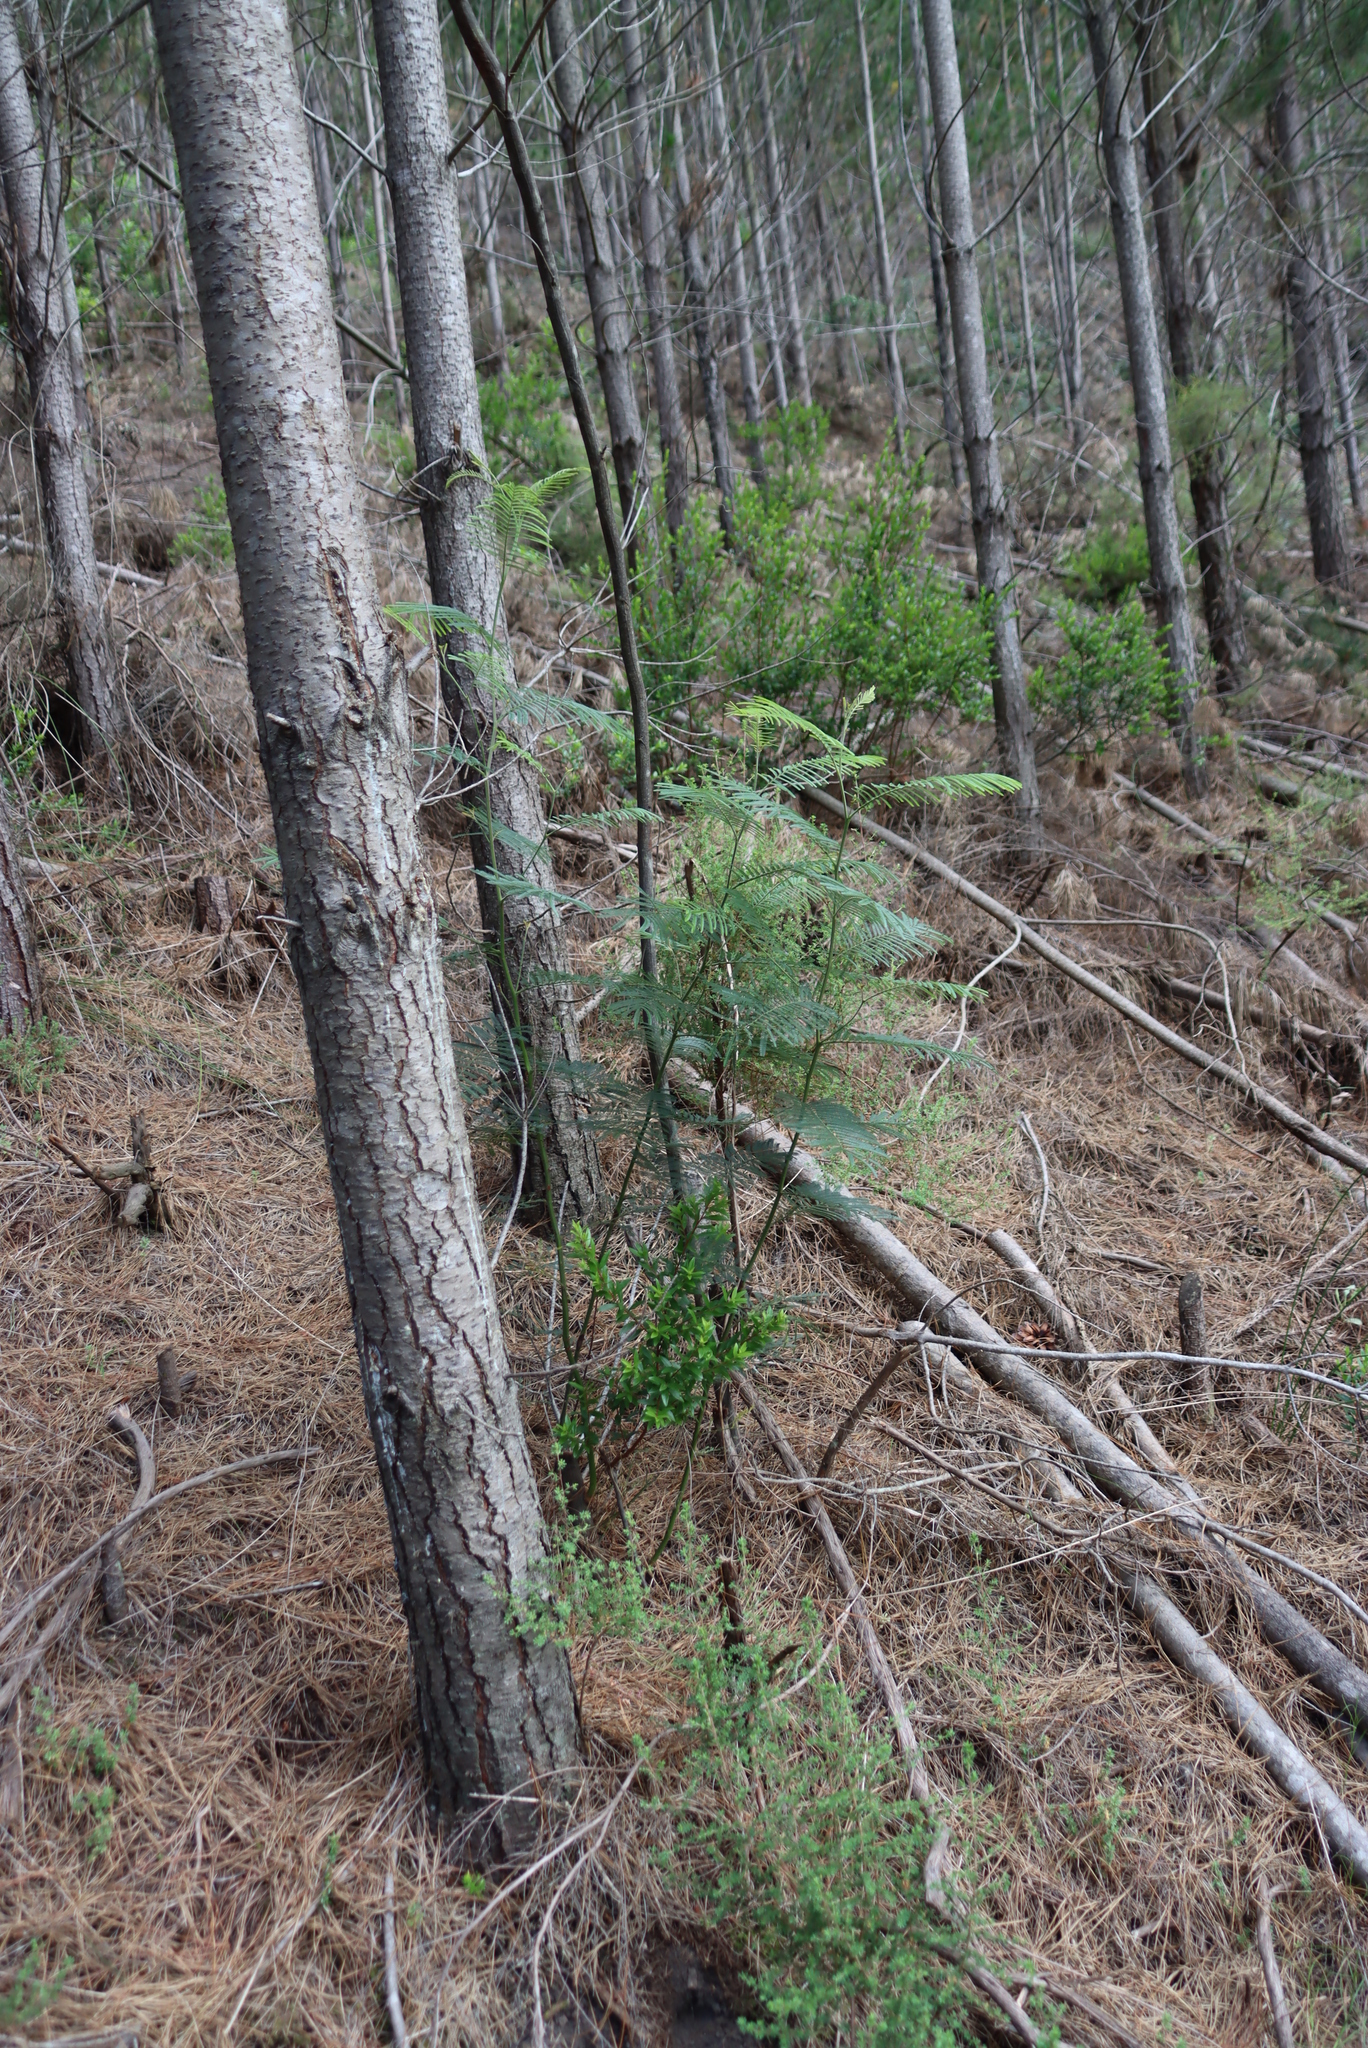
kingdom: Plantae
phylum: Tracheophyta
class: Magnoliopsida
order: Fabales
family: Fabaceae
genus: Acacia
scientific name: Acacia mearnsii
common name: Black wattle
